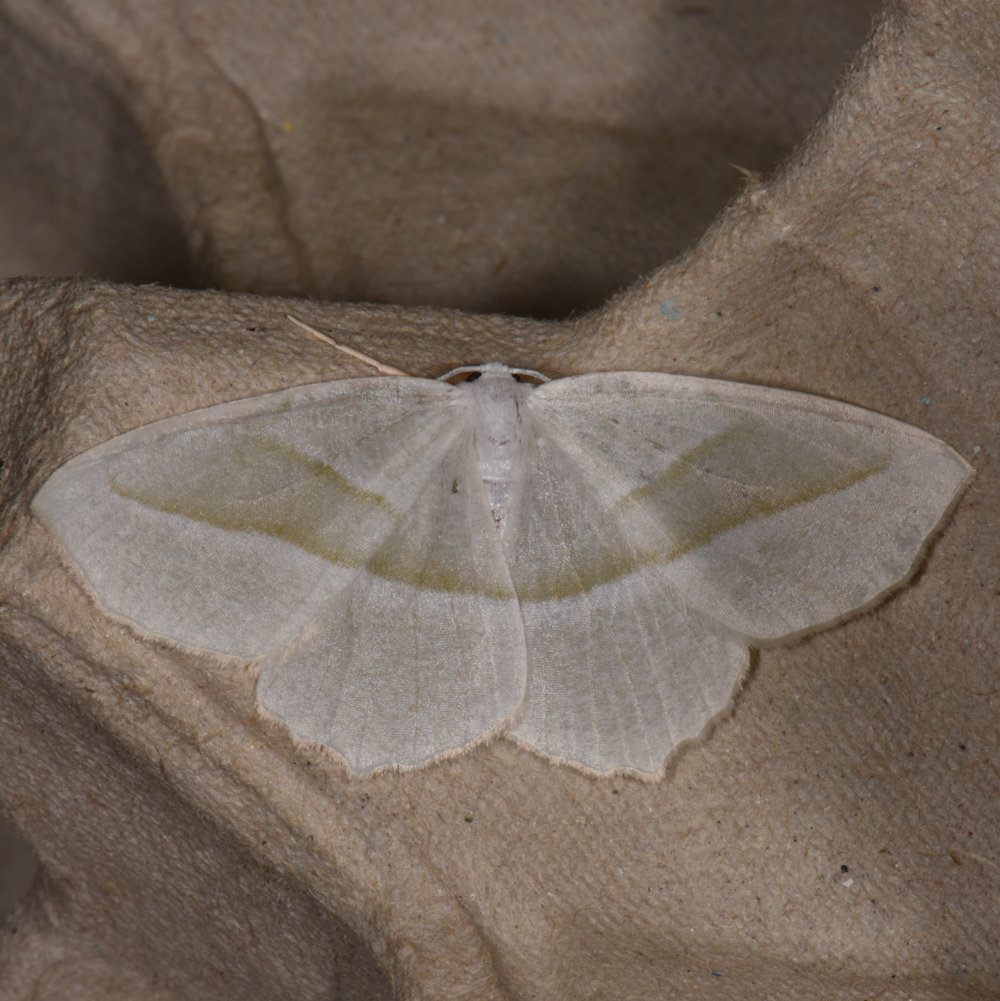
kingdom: Animalia
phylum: Arthropoda
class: Insecta
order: Lepidoptera
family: Geometridae
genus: Campaea
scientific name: Campaea perlata
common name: Fringed looper
